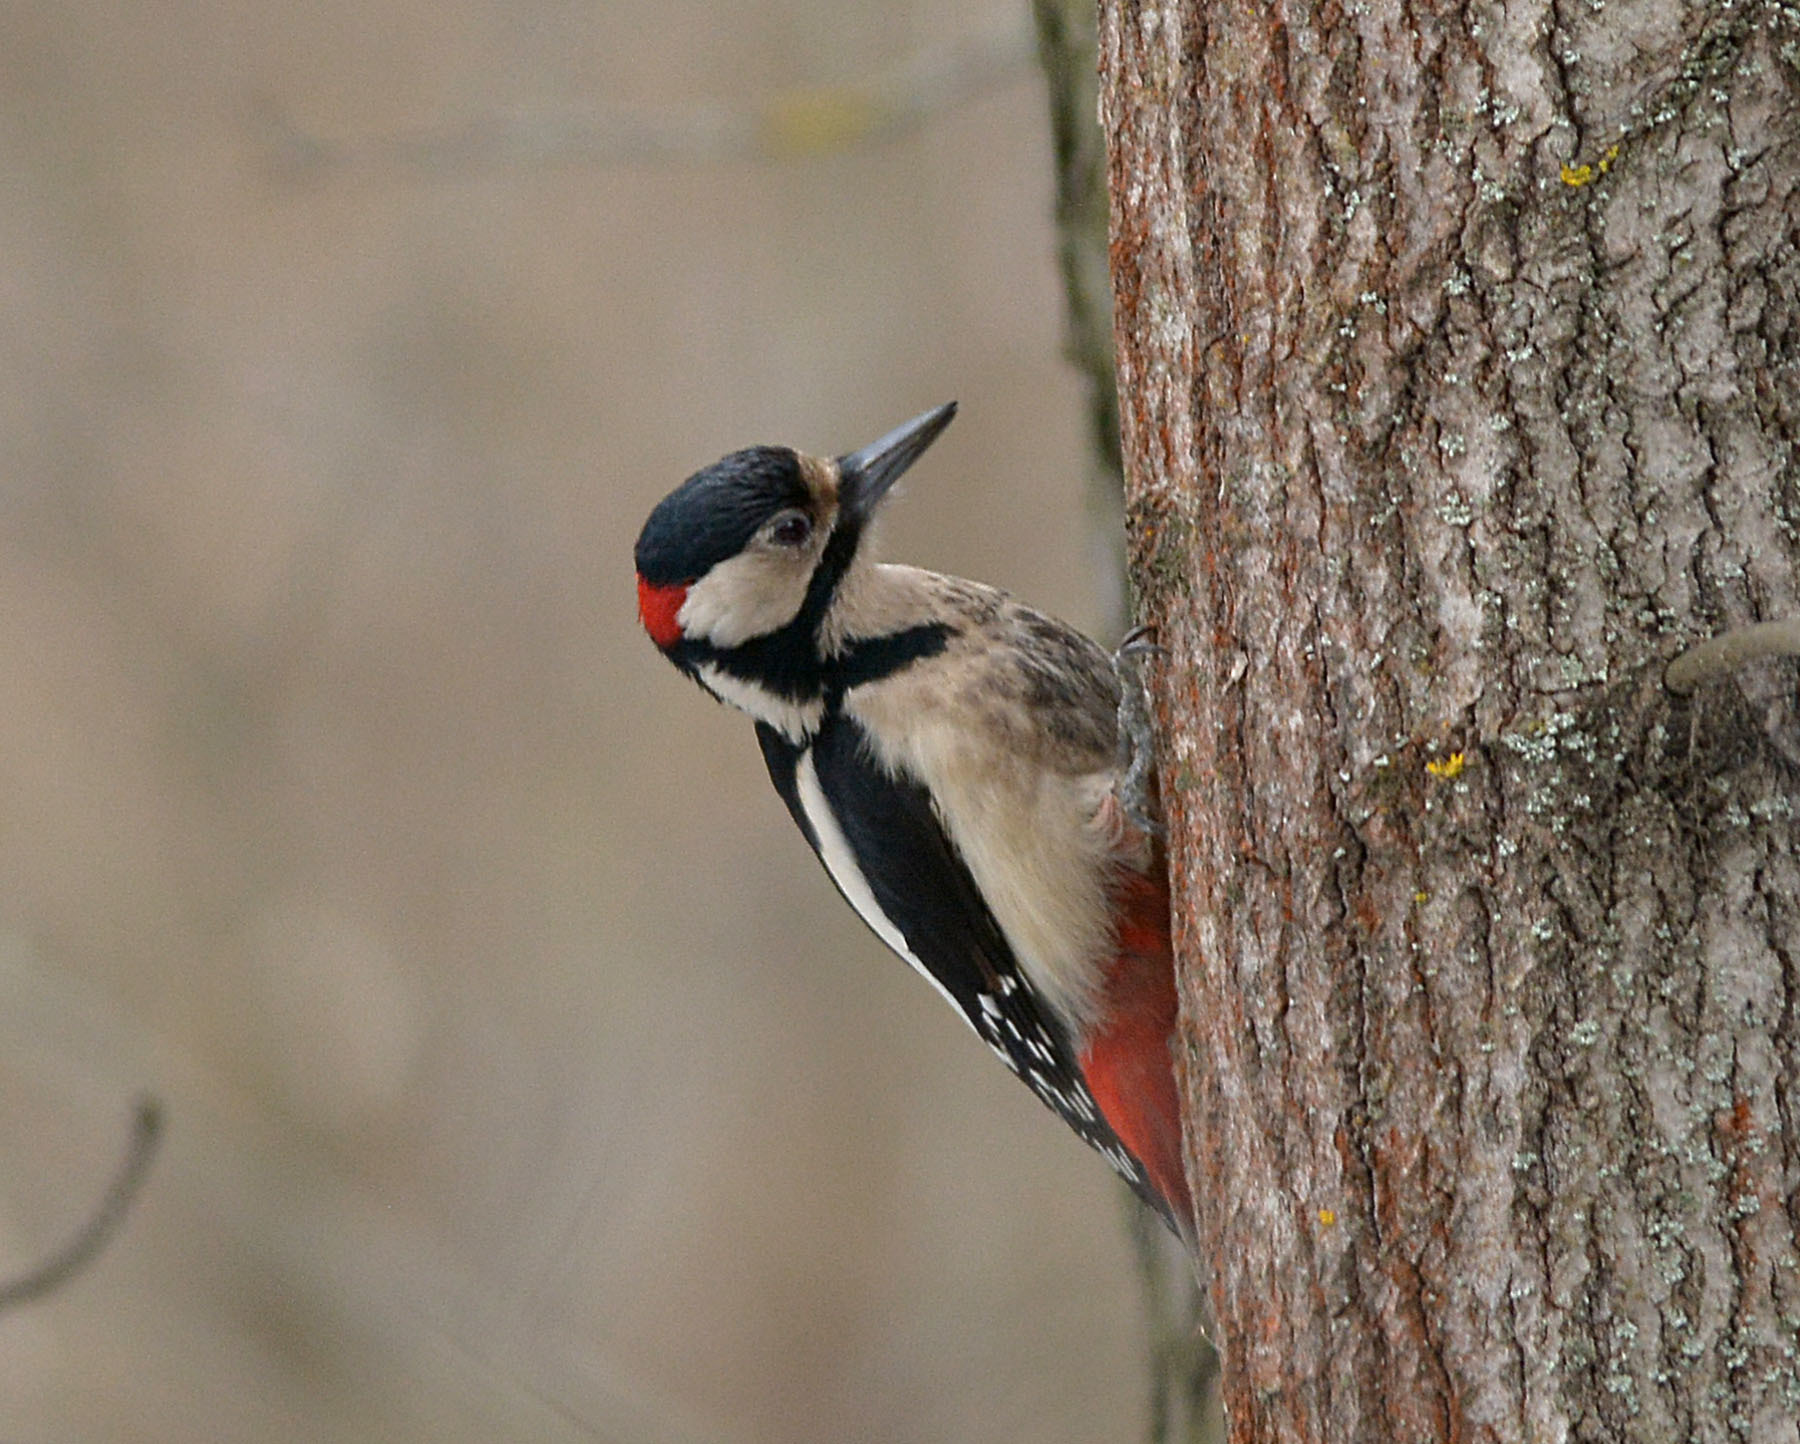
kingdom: Animalia
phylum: Chordata
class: Aves
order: Piciformes
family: Picidae
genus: Dendrocopos
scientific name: Dendrocopos major
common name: Great spotted woodpecker
